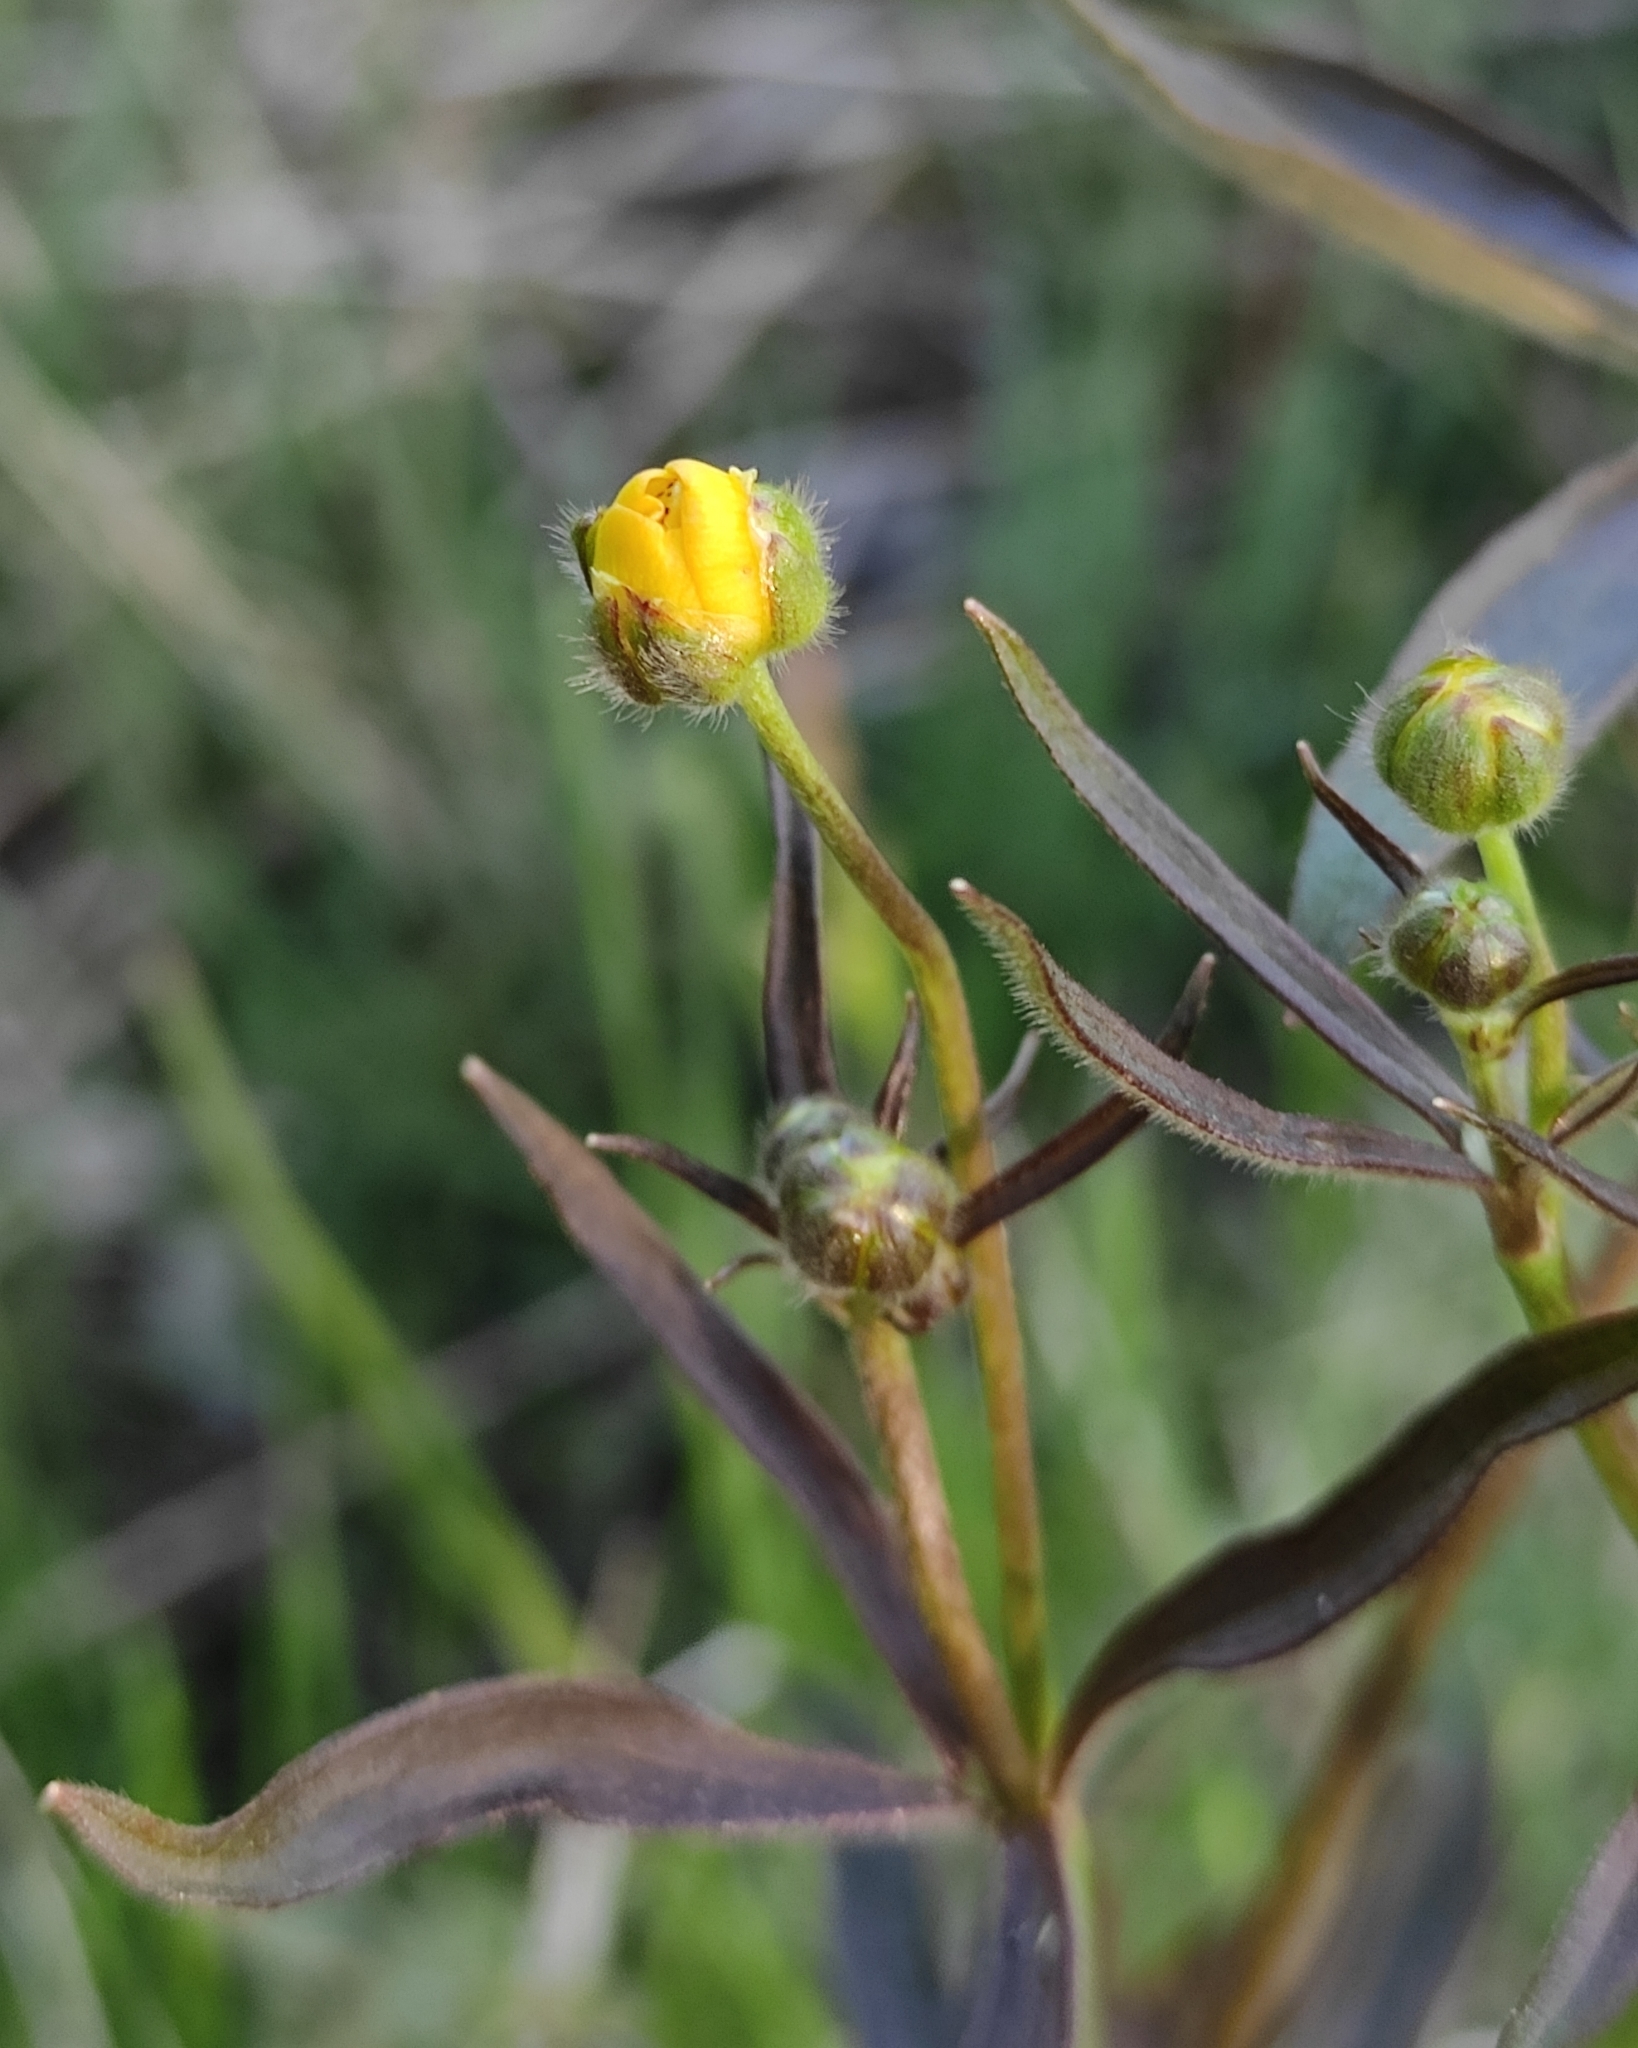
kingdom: Plantae
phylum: Tracheophyta
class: Magnoliopsida
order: Ranunculales
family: Ranunculaceae
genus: Ranunculus
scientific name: Ranunculus propinquus
